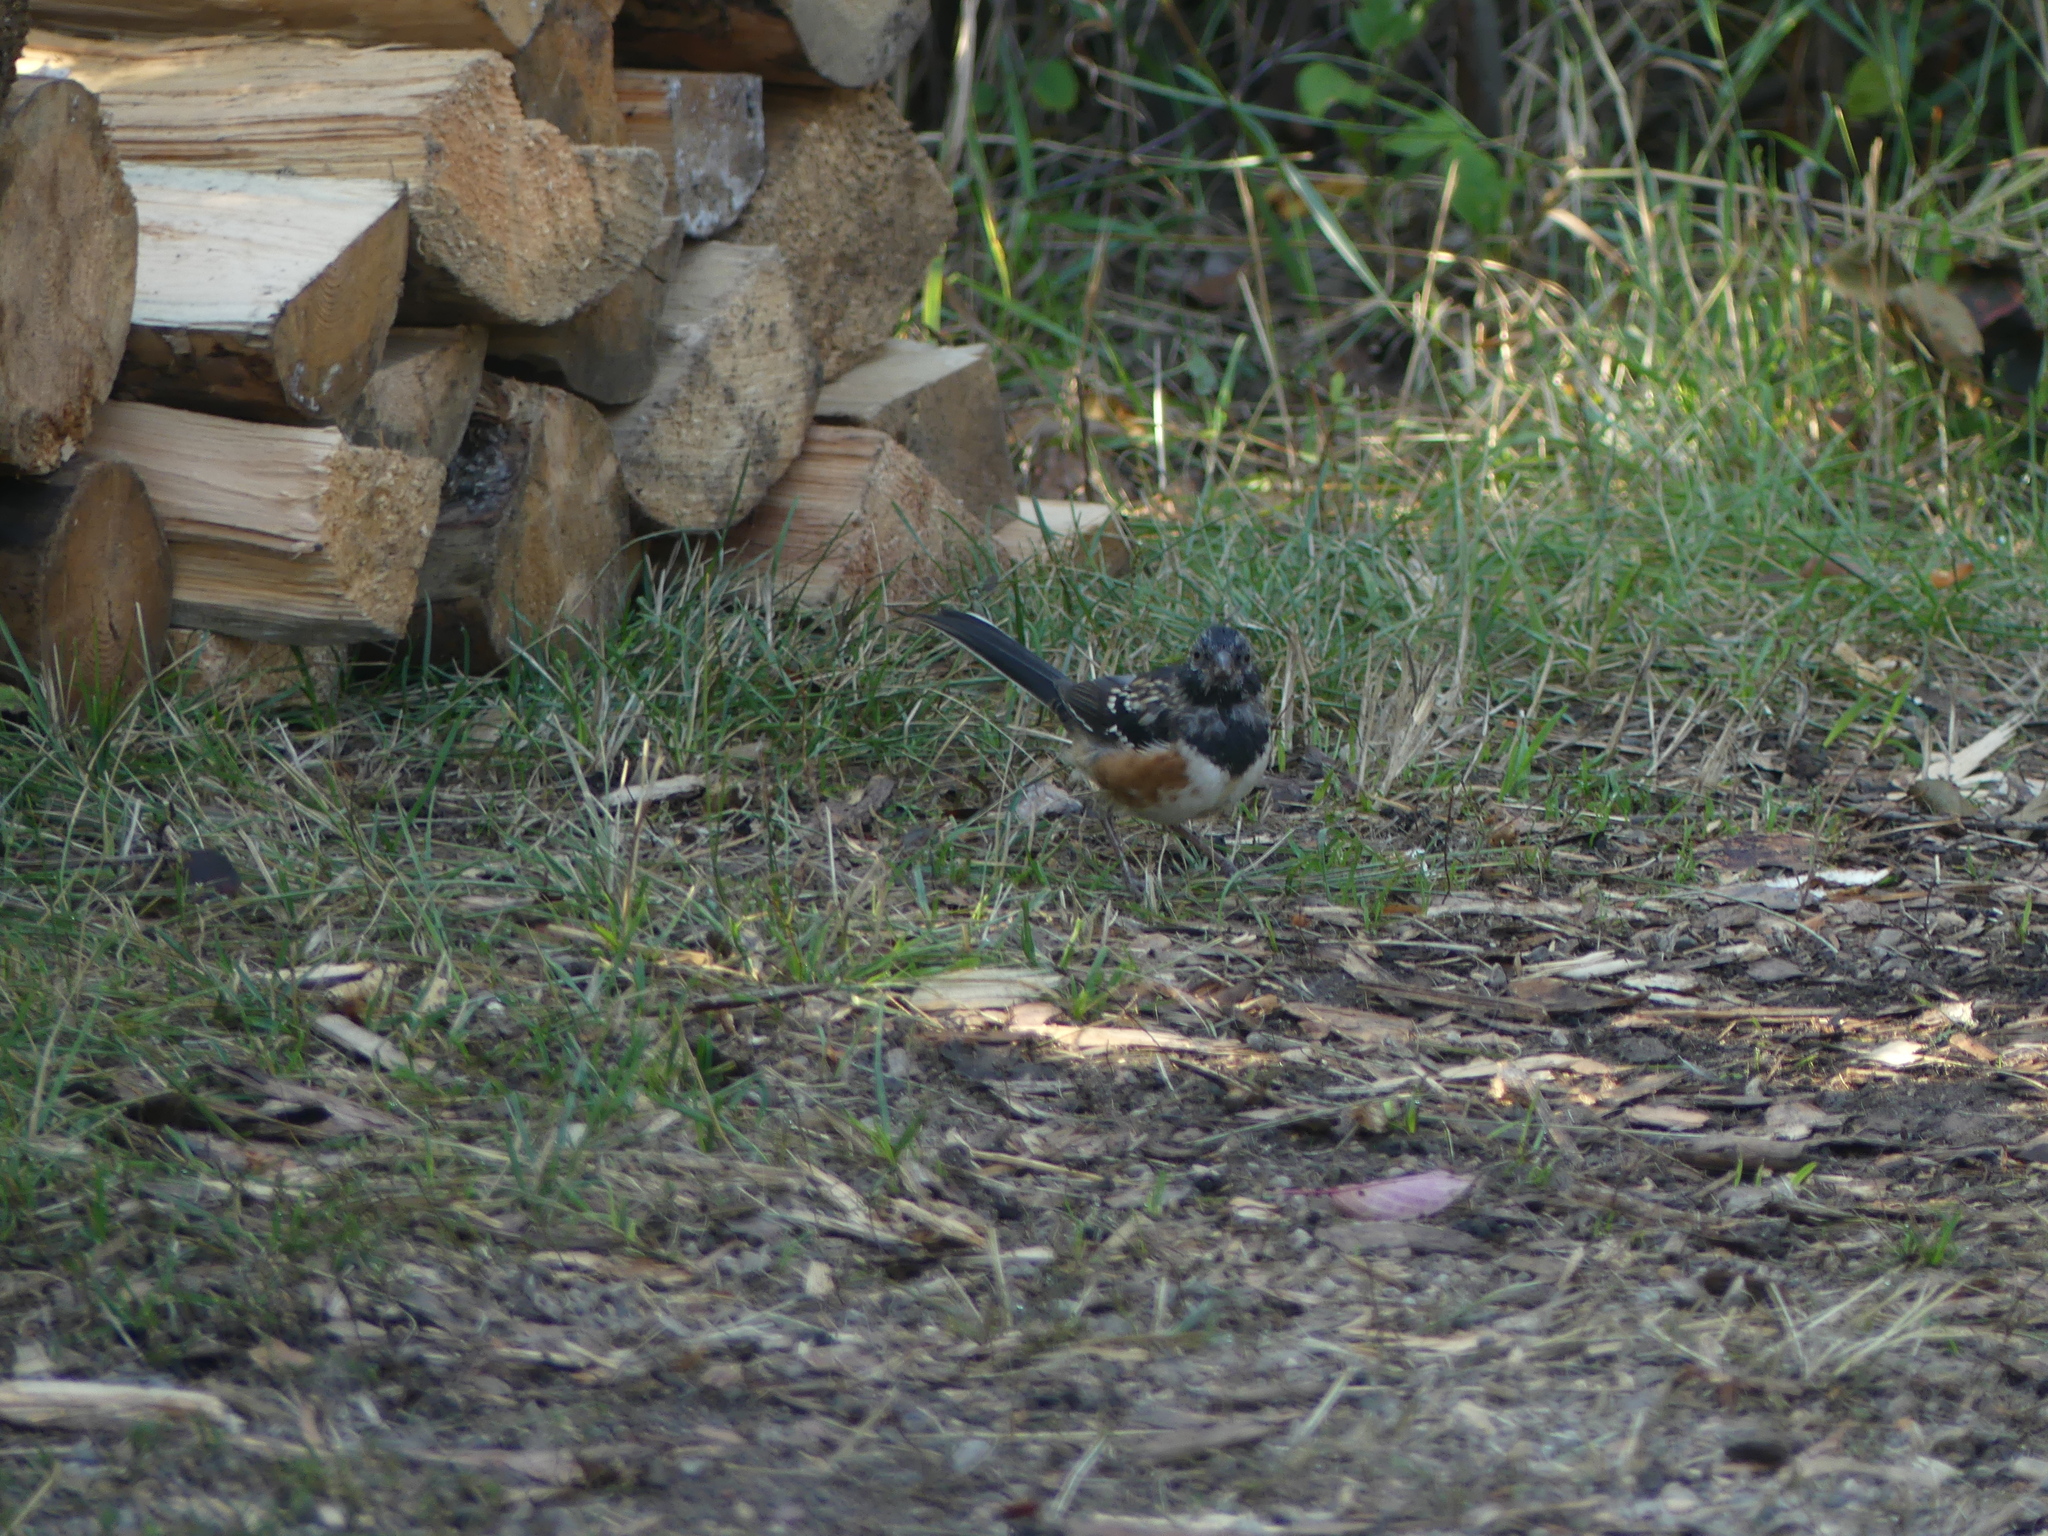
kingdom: Animalia
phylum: Chordata
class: Aves
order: Passeriformes
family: Passerellidae
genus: Pipilo
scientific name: Pipilo maculatus
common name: Spotted towhee
